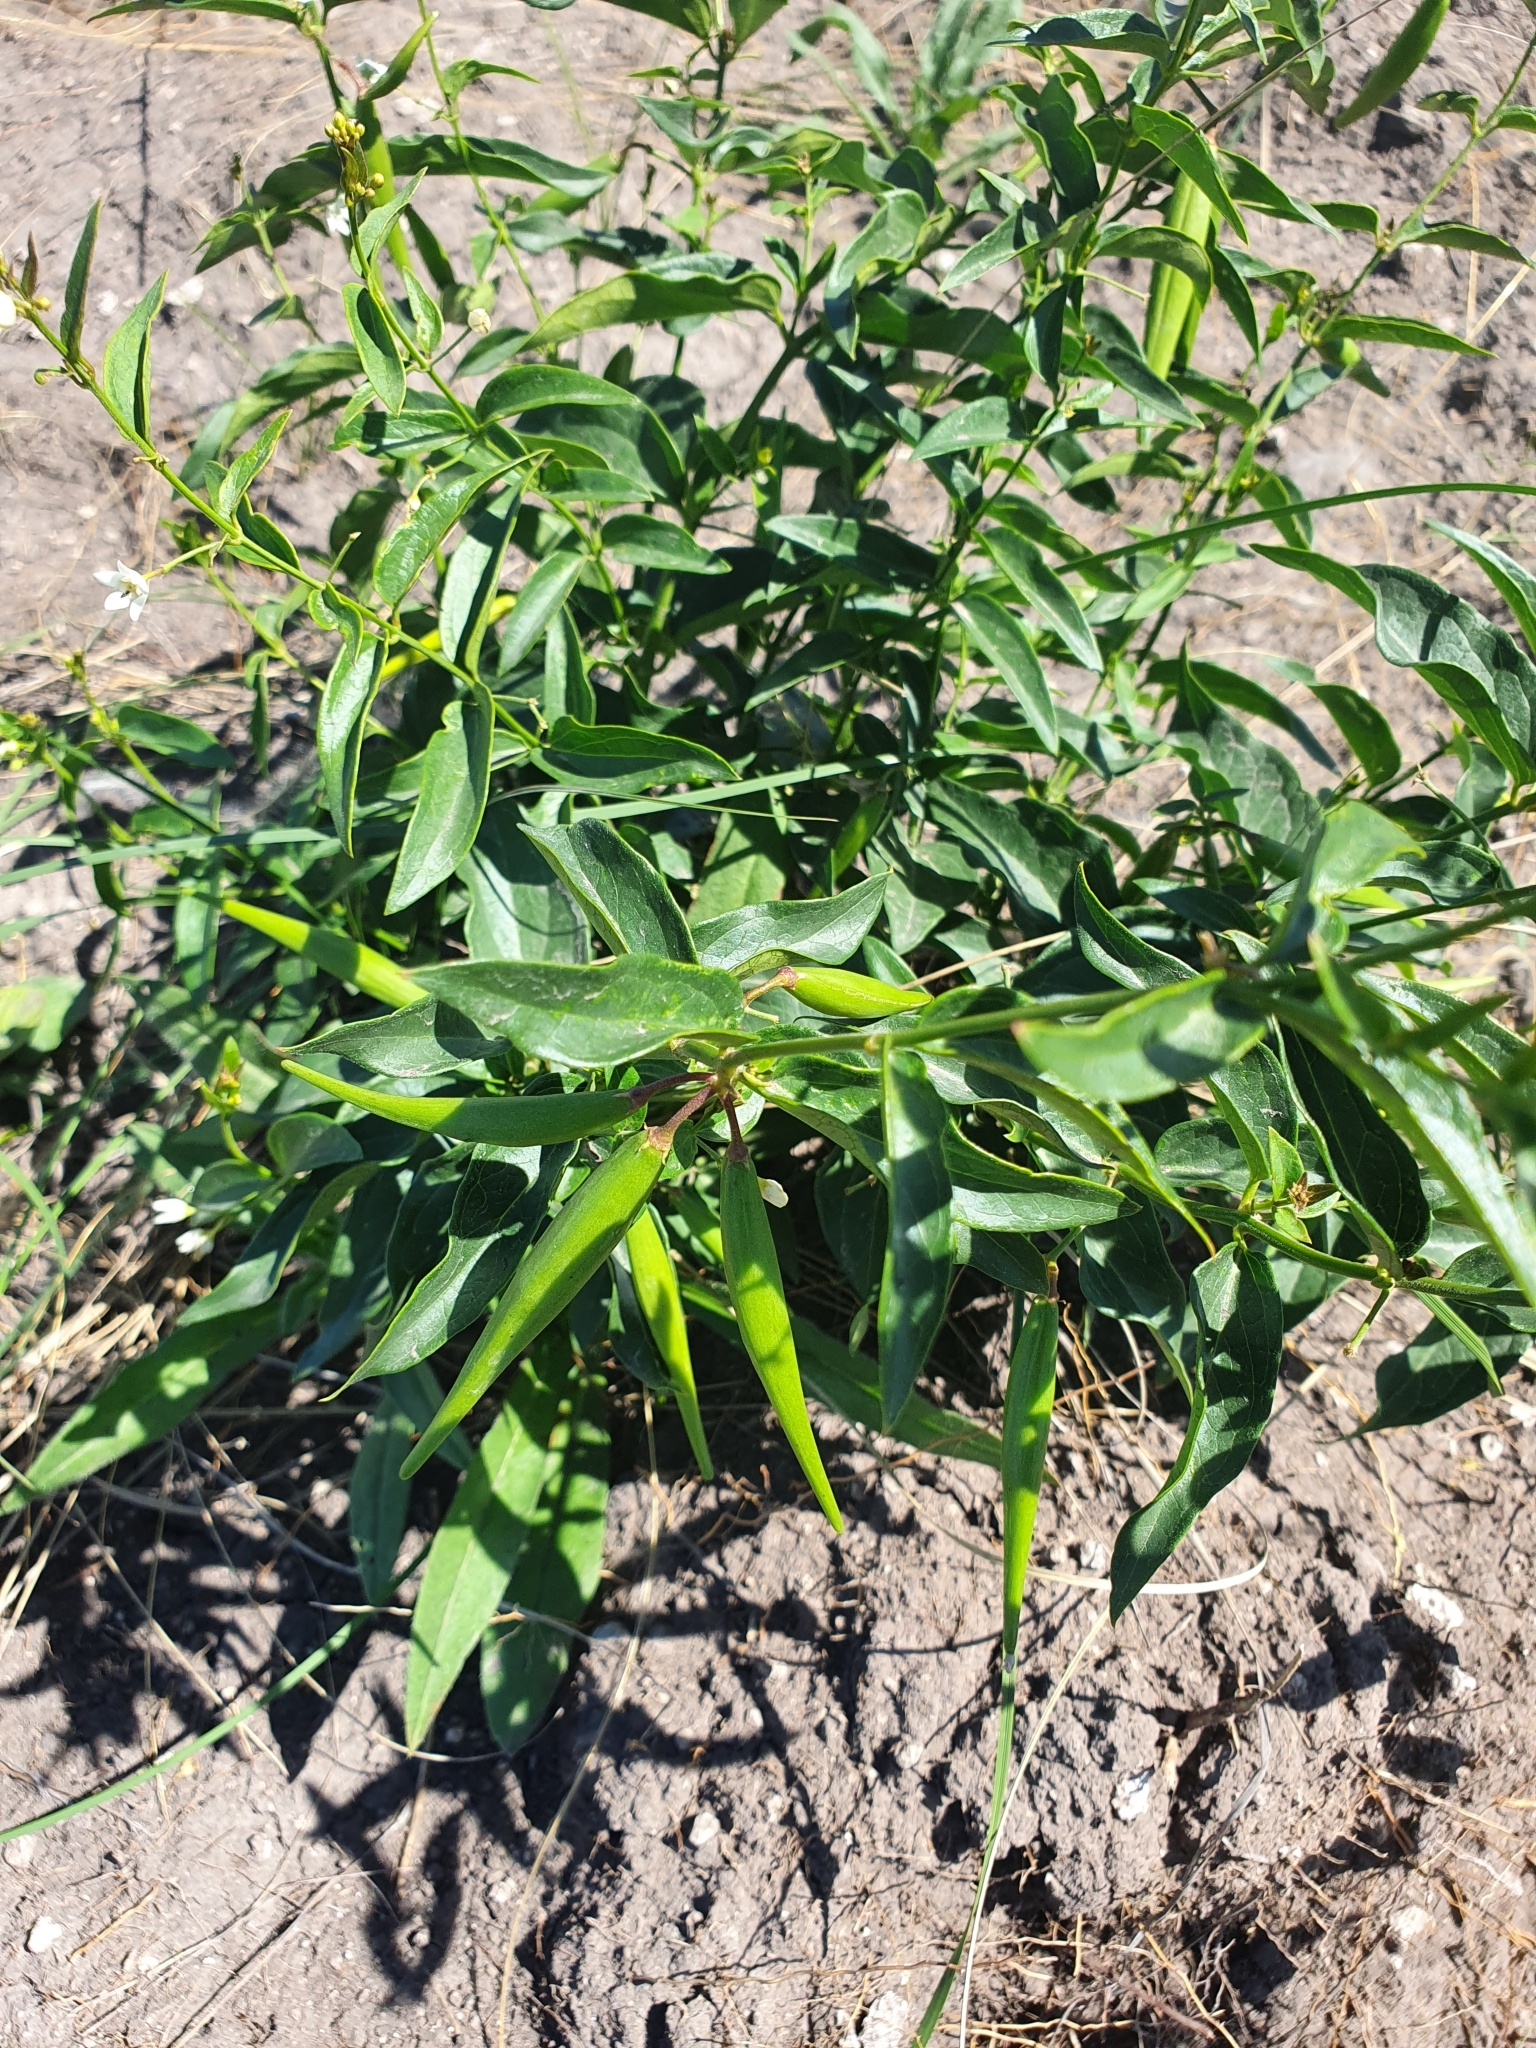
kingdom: Plantae
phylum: Tracheophyta
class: Magnoliopsida
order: Gentianales
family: Apocynaceae
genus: Vincetoxicum
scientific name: Vincetoxicum hirundinaria
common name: White swallowwort
